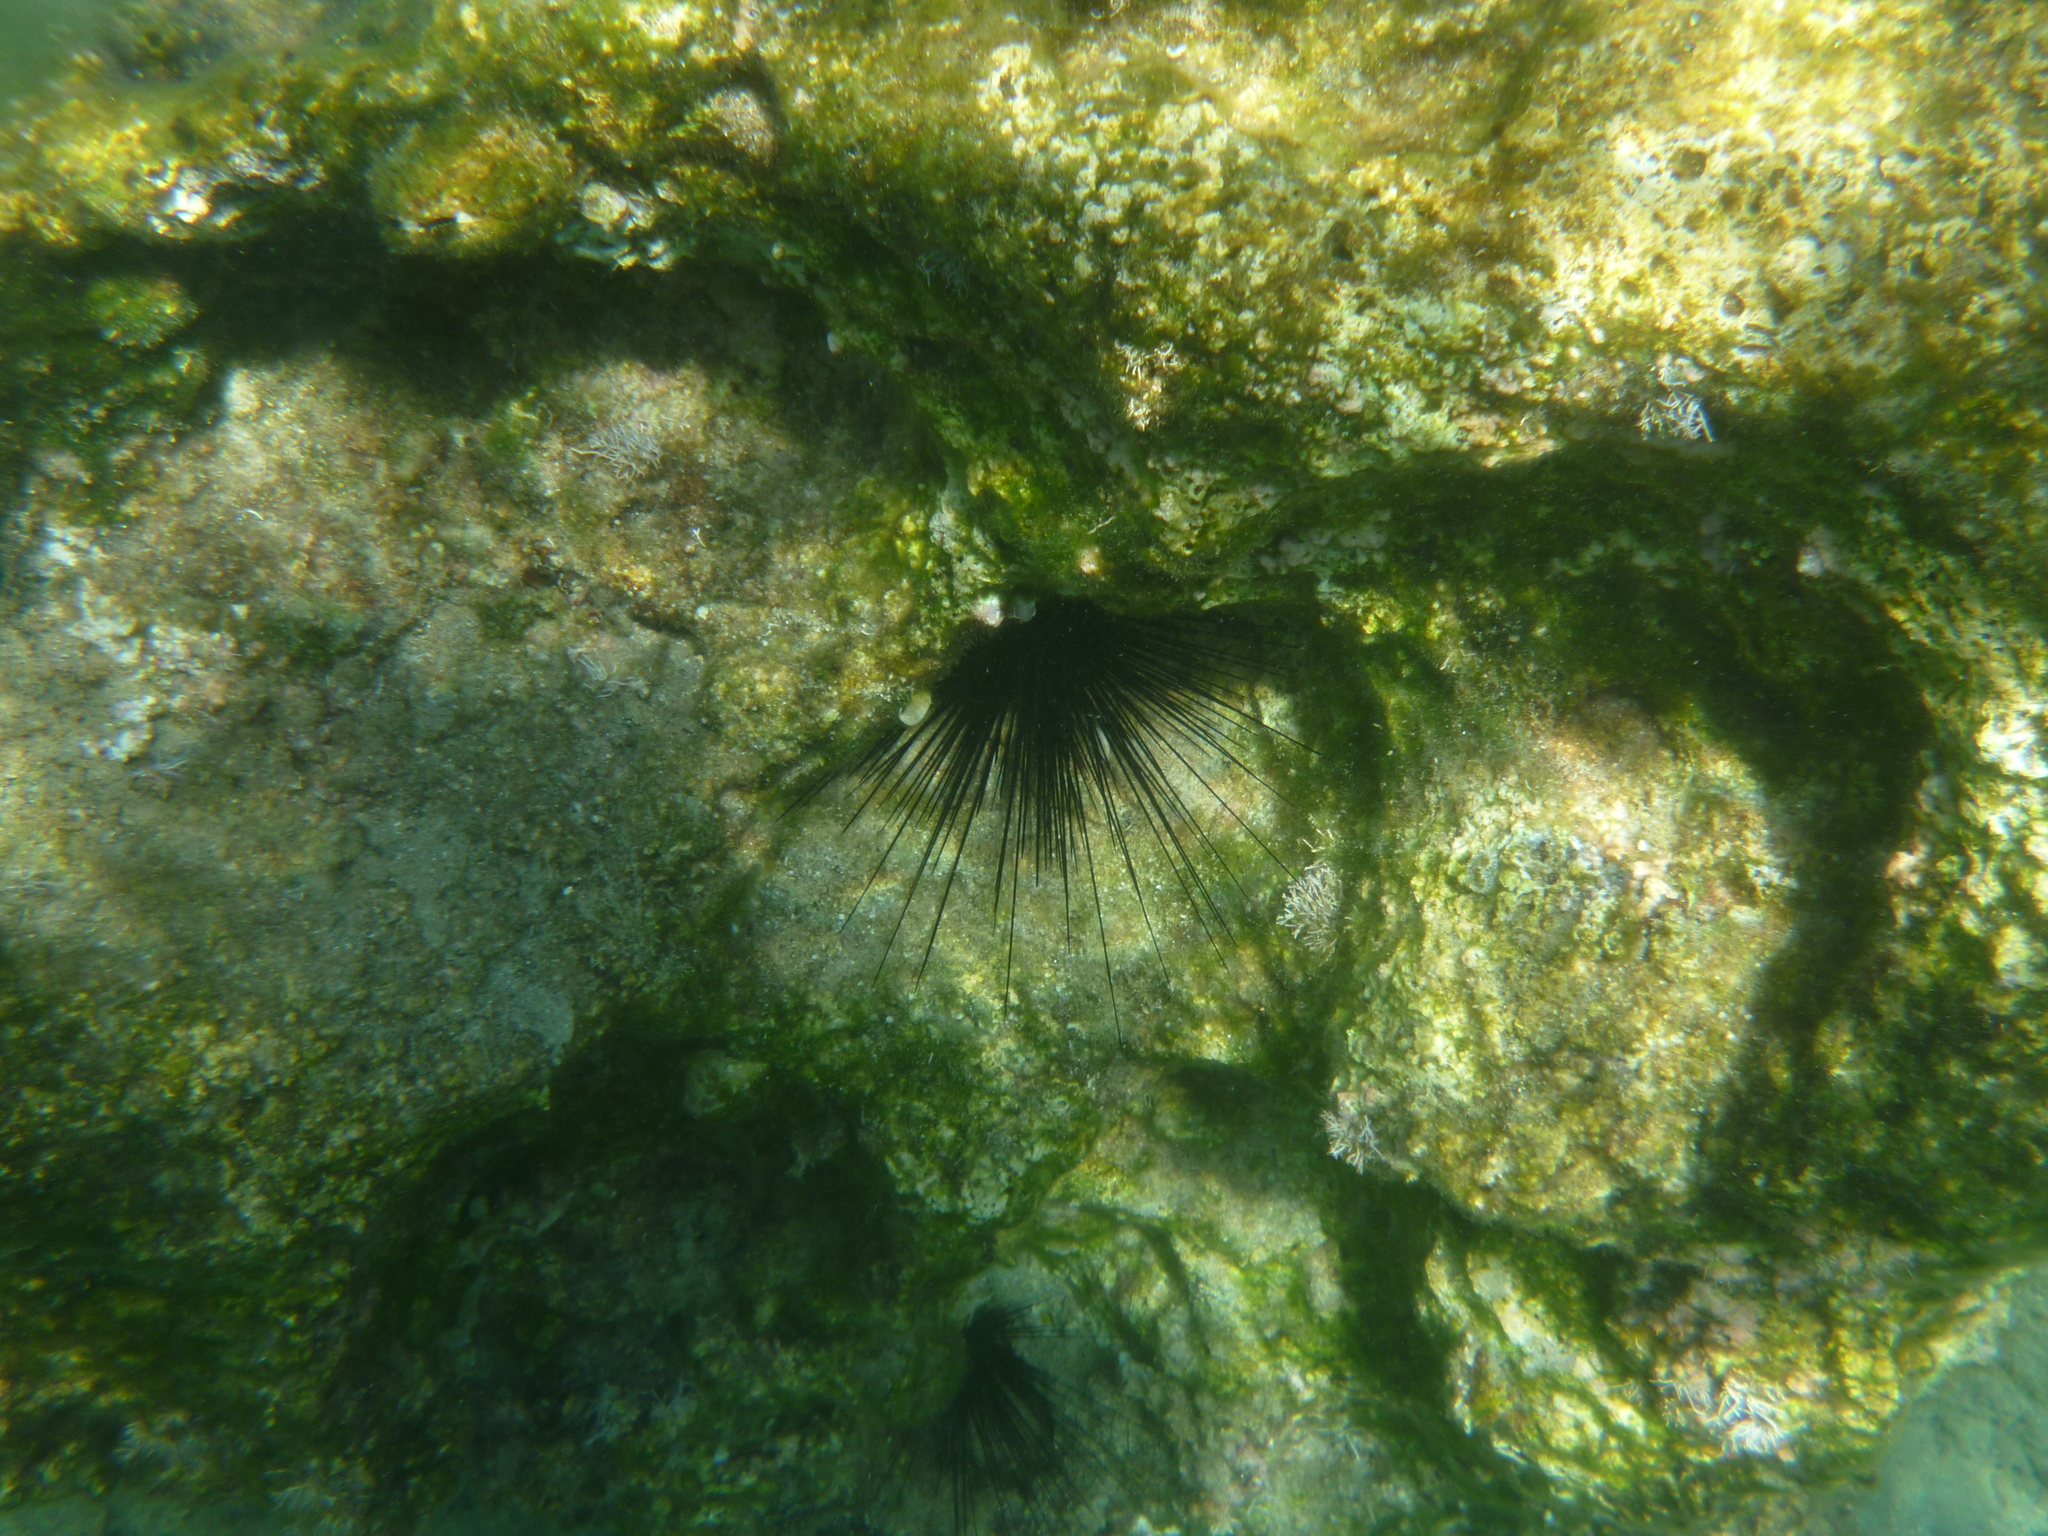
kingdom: Animalia
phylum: Echinodermata
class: Echinoidea
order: Diadematoida
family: Diadematidae
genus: Diadema
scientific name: Diadema setosum
